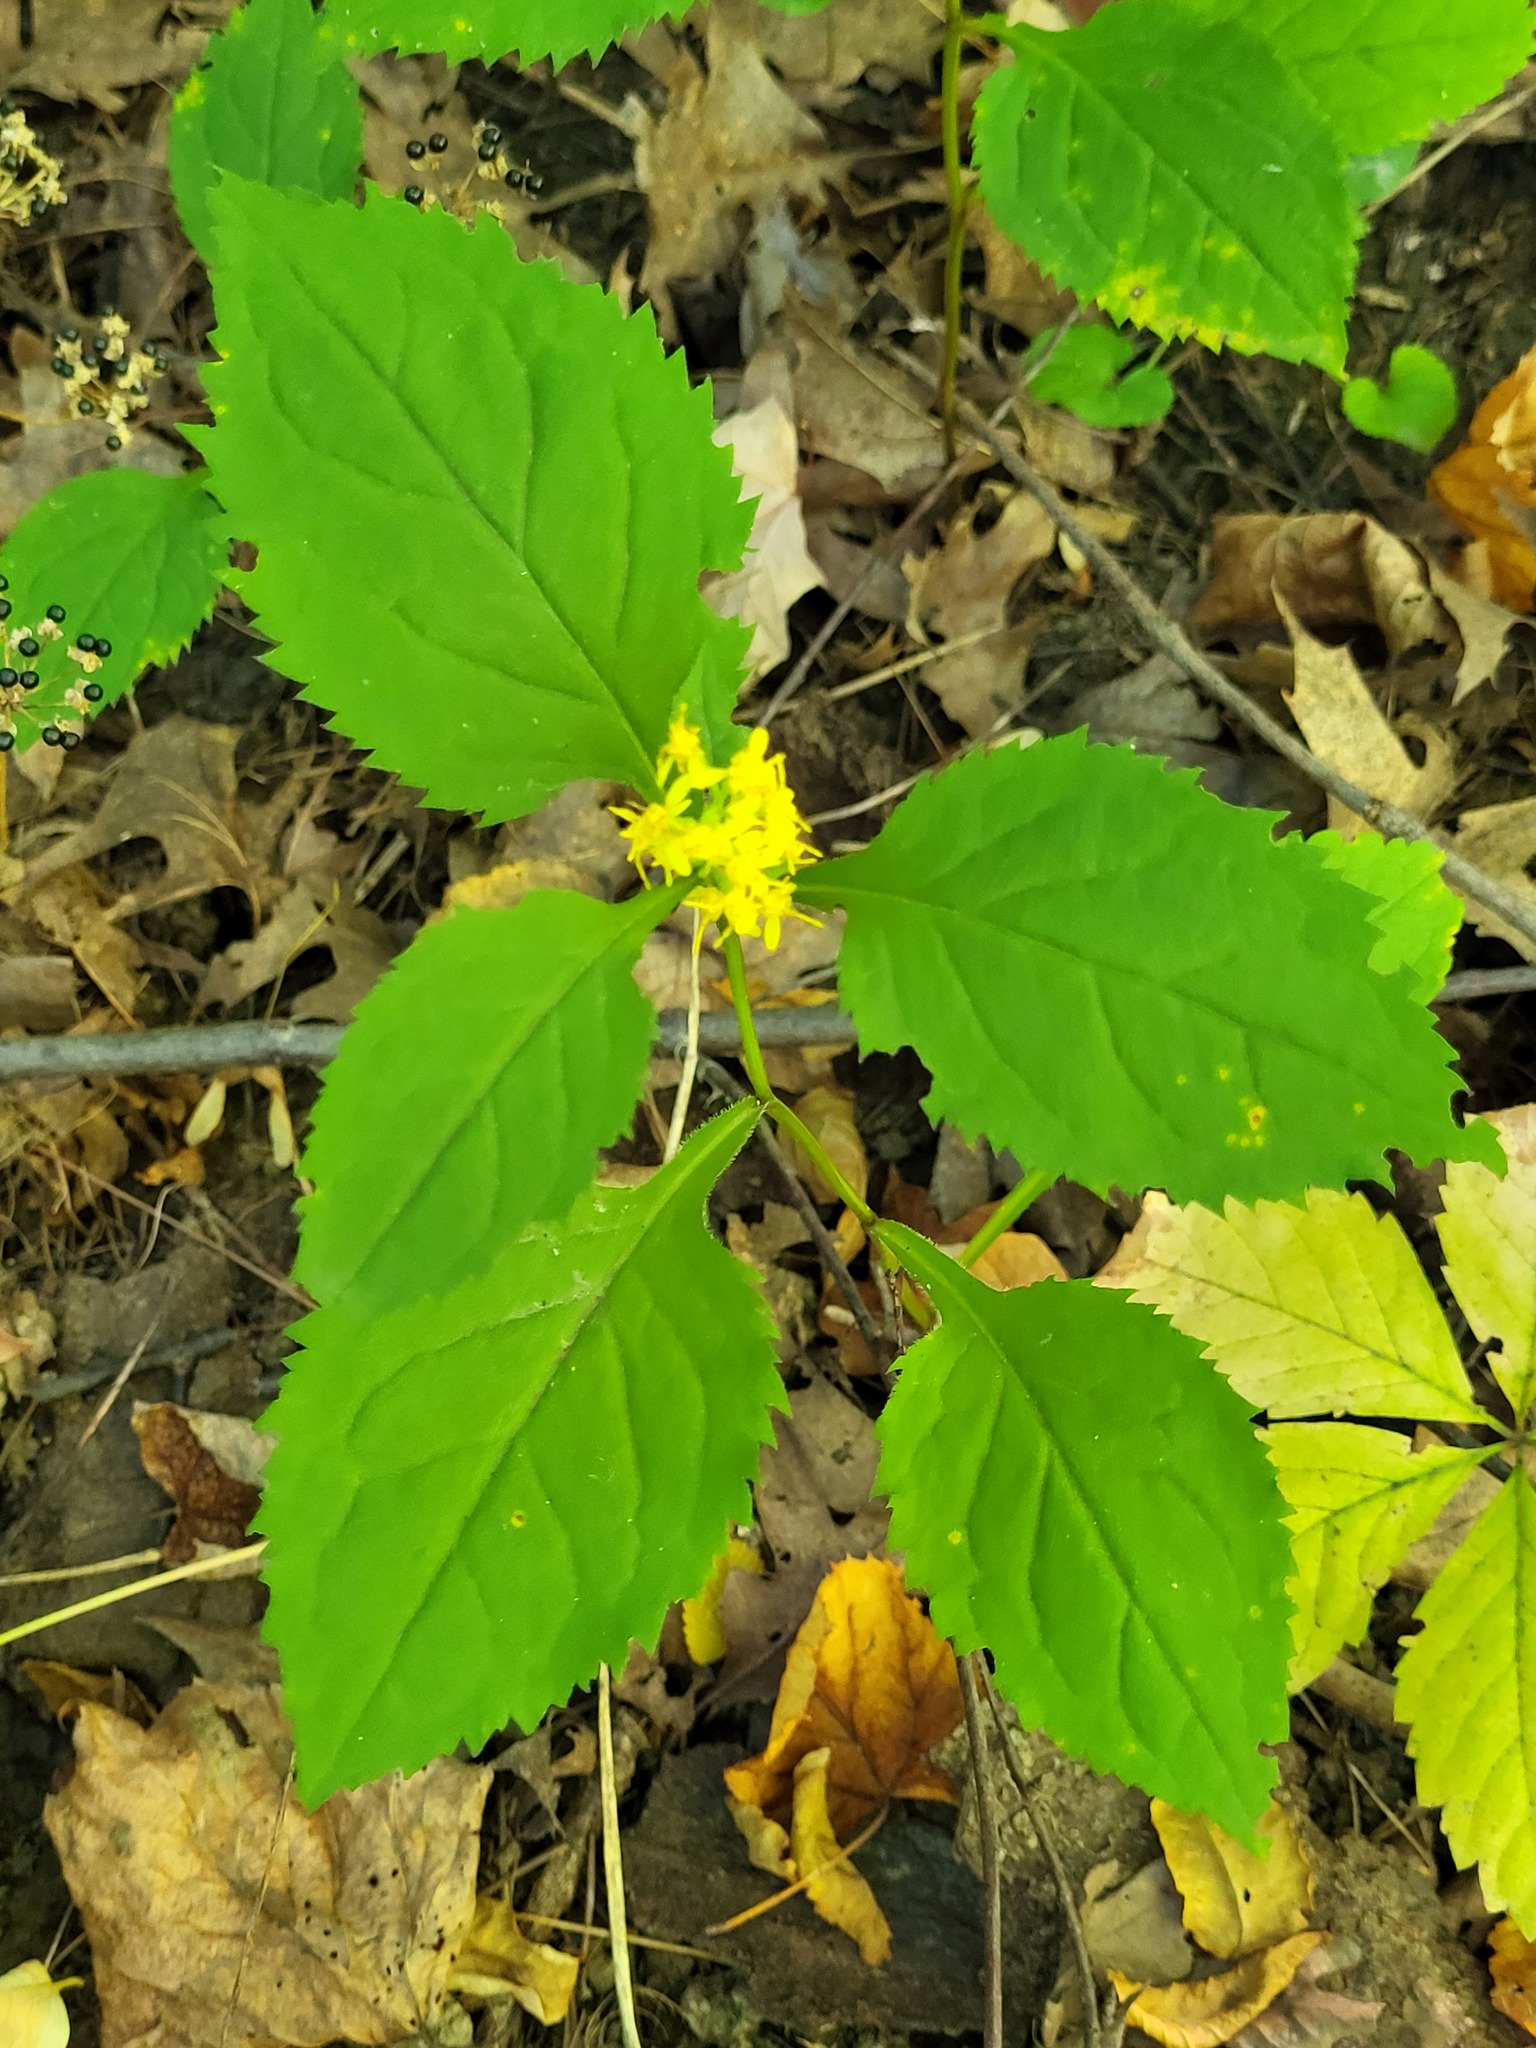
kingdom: Plantae
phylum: Tracheophyta
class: Magnoliopsida
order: Asterales
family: Asteraceae
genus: Solidago
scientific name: Solidago flexicaulis
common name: Zig-zag goldenrod
